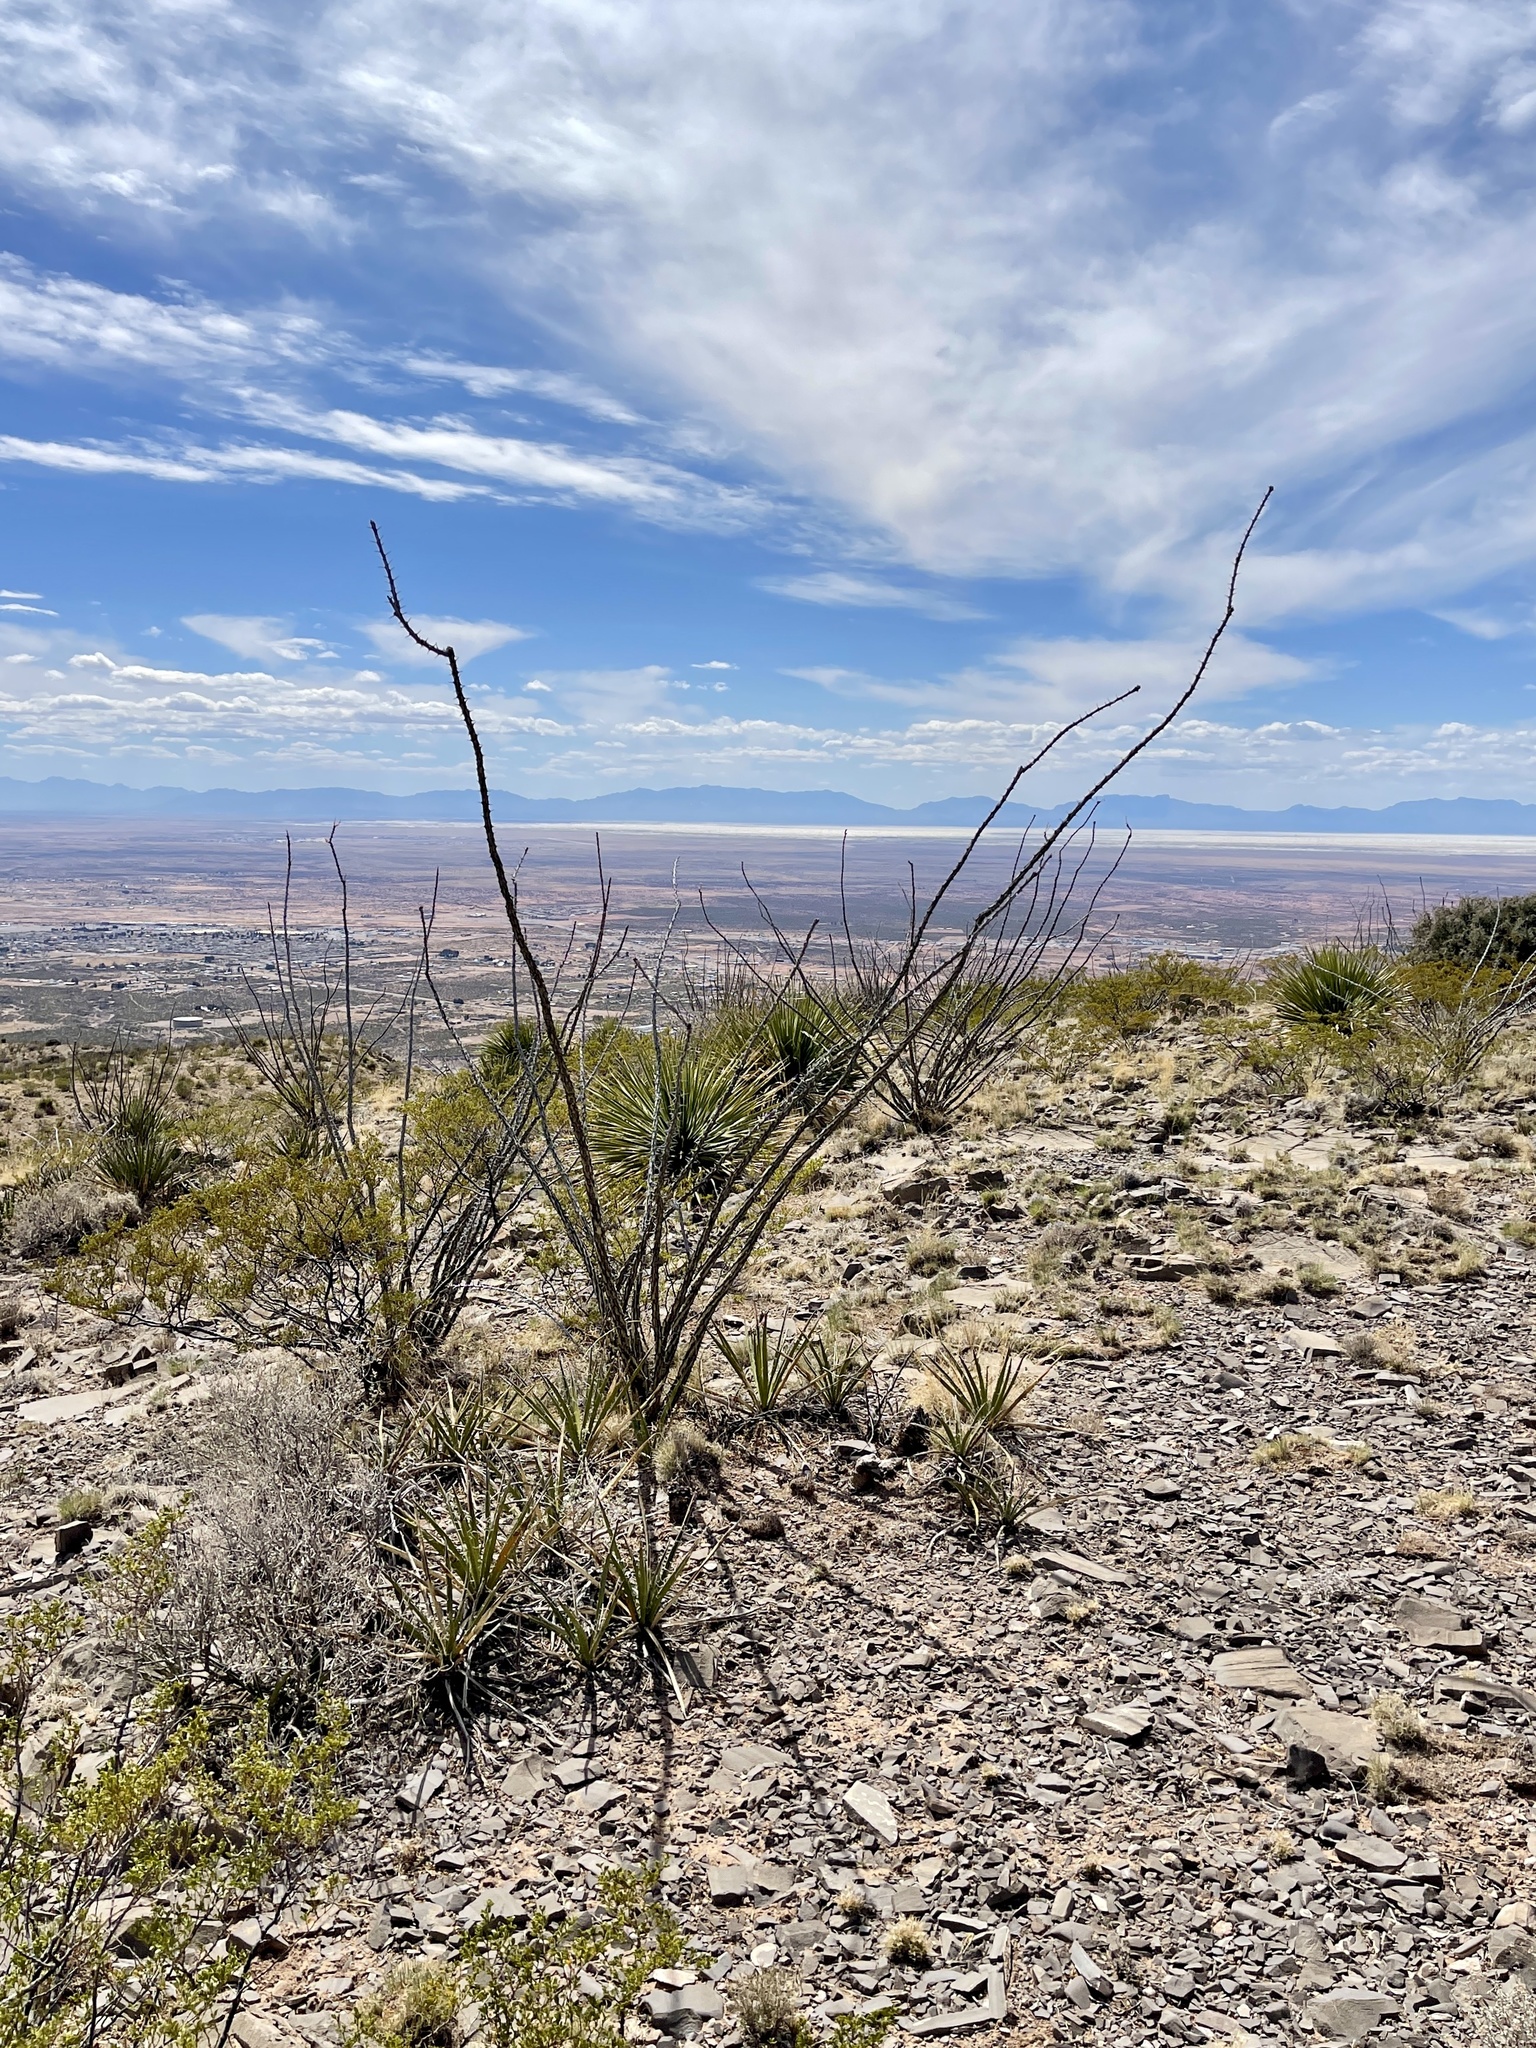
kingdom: Plantae
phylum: Tracheophyta
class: Magnoliopsida
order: Ericales
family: Fouquieriaceae
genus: Fouquieria
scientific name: Fouquieria splendens
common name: Vine-cactus
